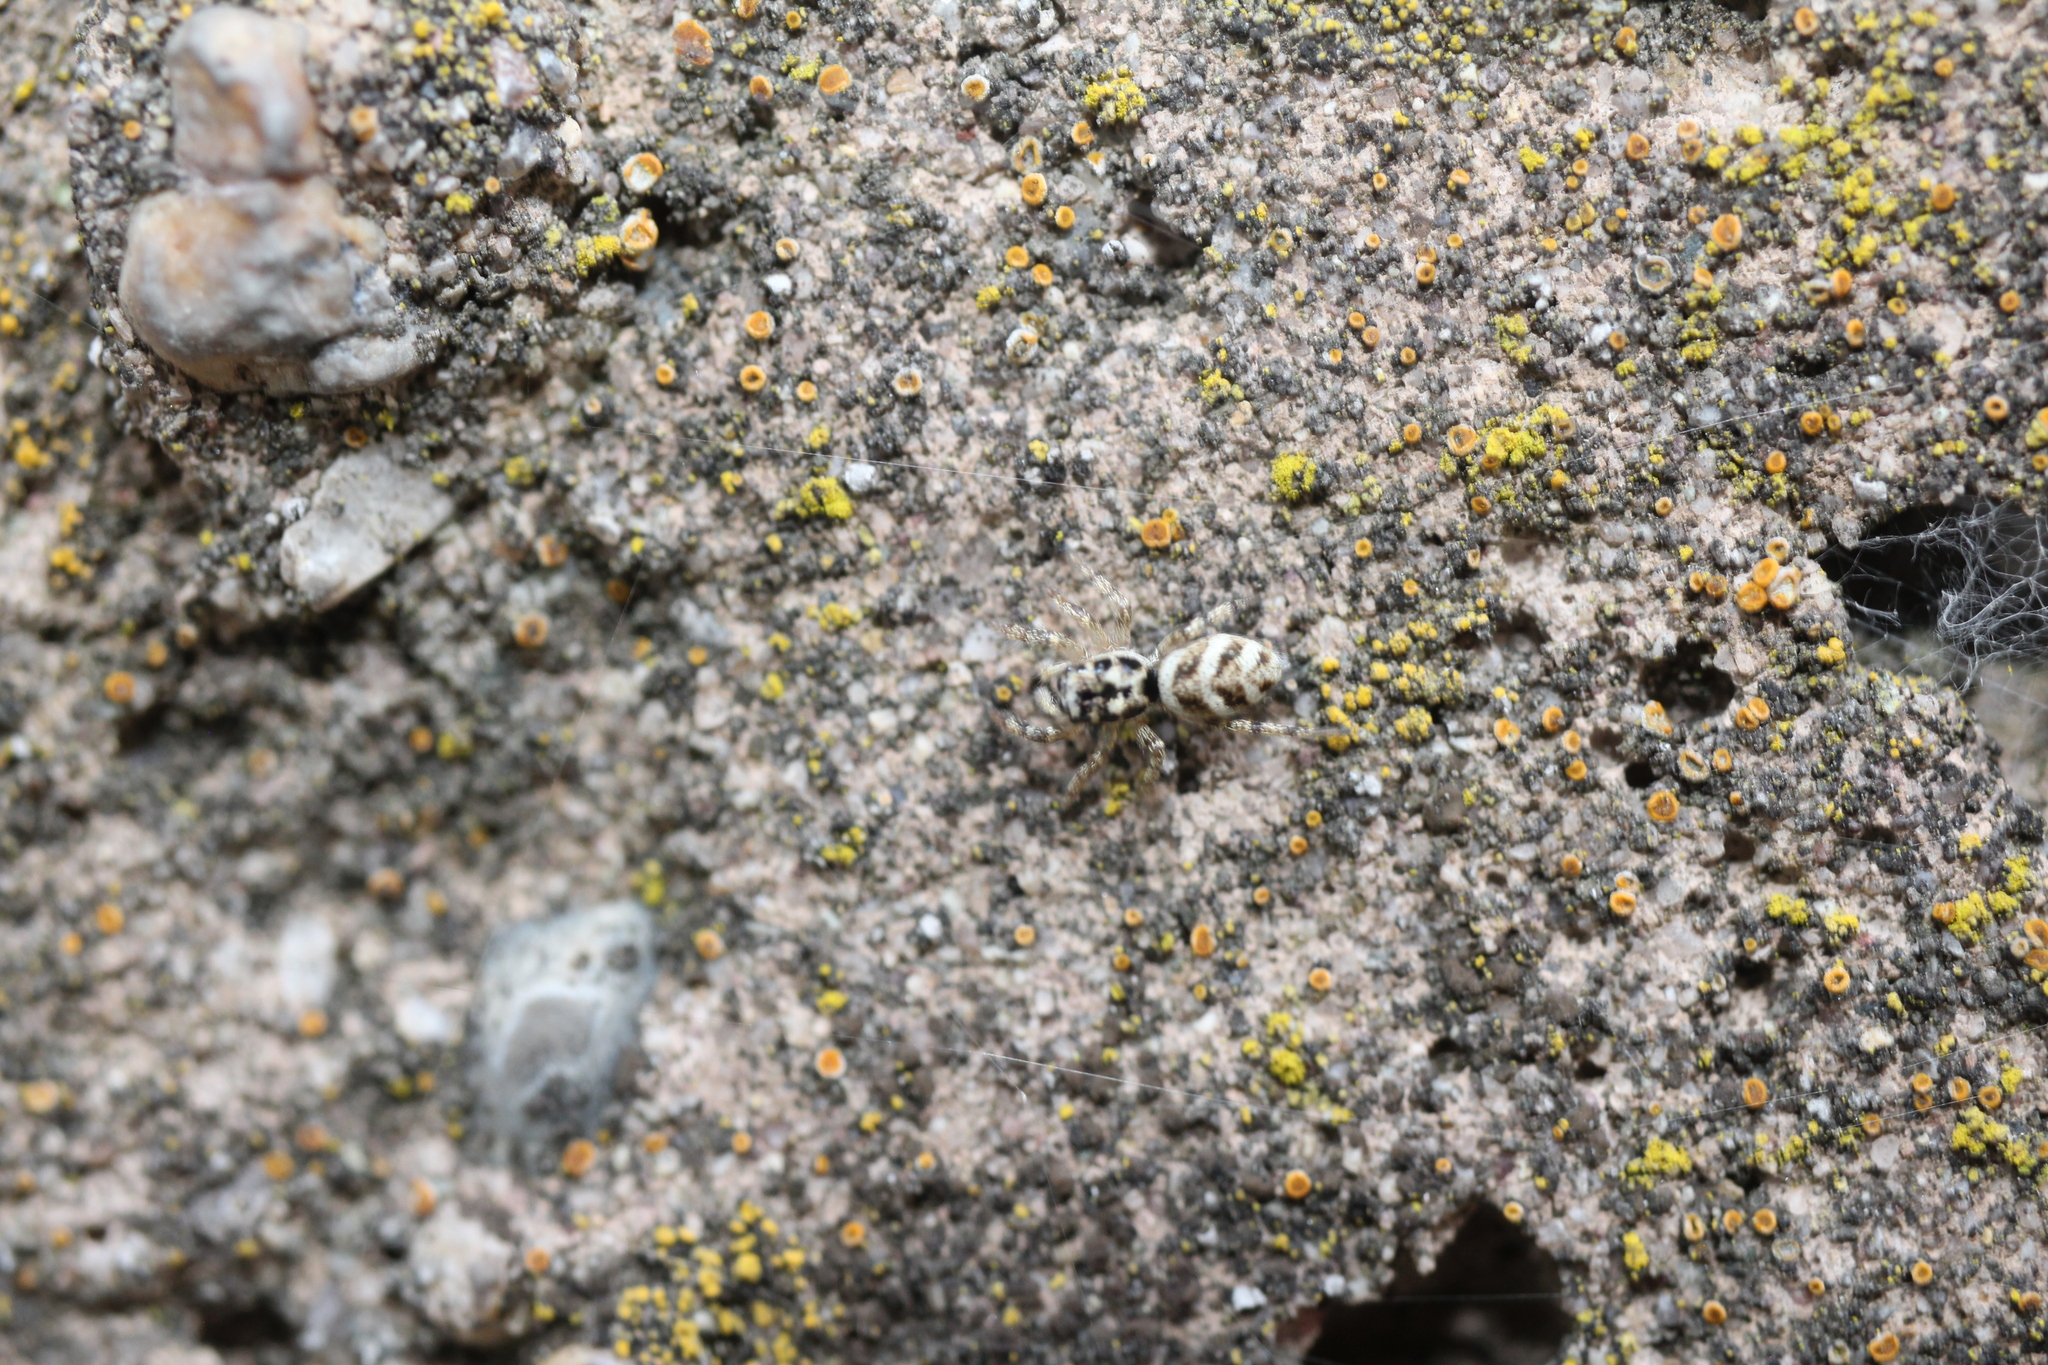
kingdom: Animalia
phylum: Arthropoda
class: Arachnida
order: Araneae
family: Salticidae
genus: Salticus
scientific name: Salticus scenicus
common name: Zebra jumper
